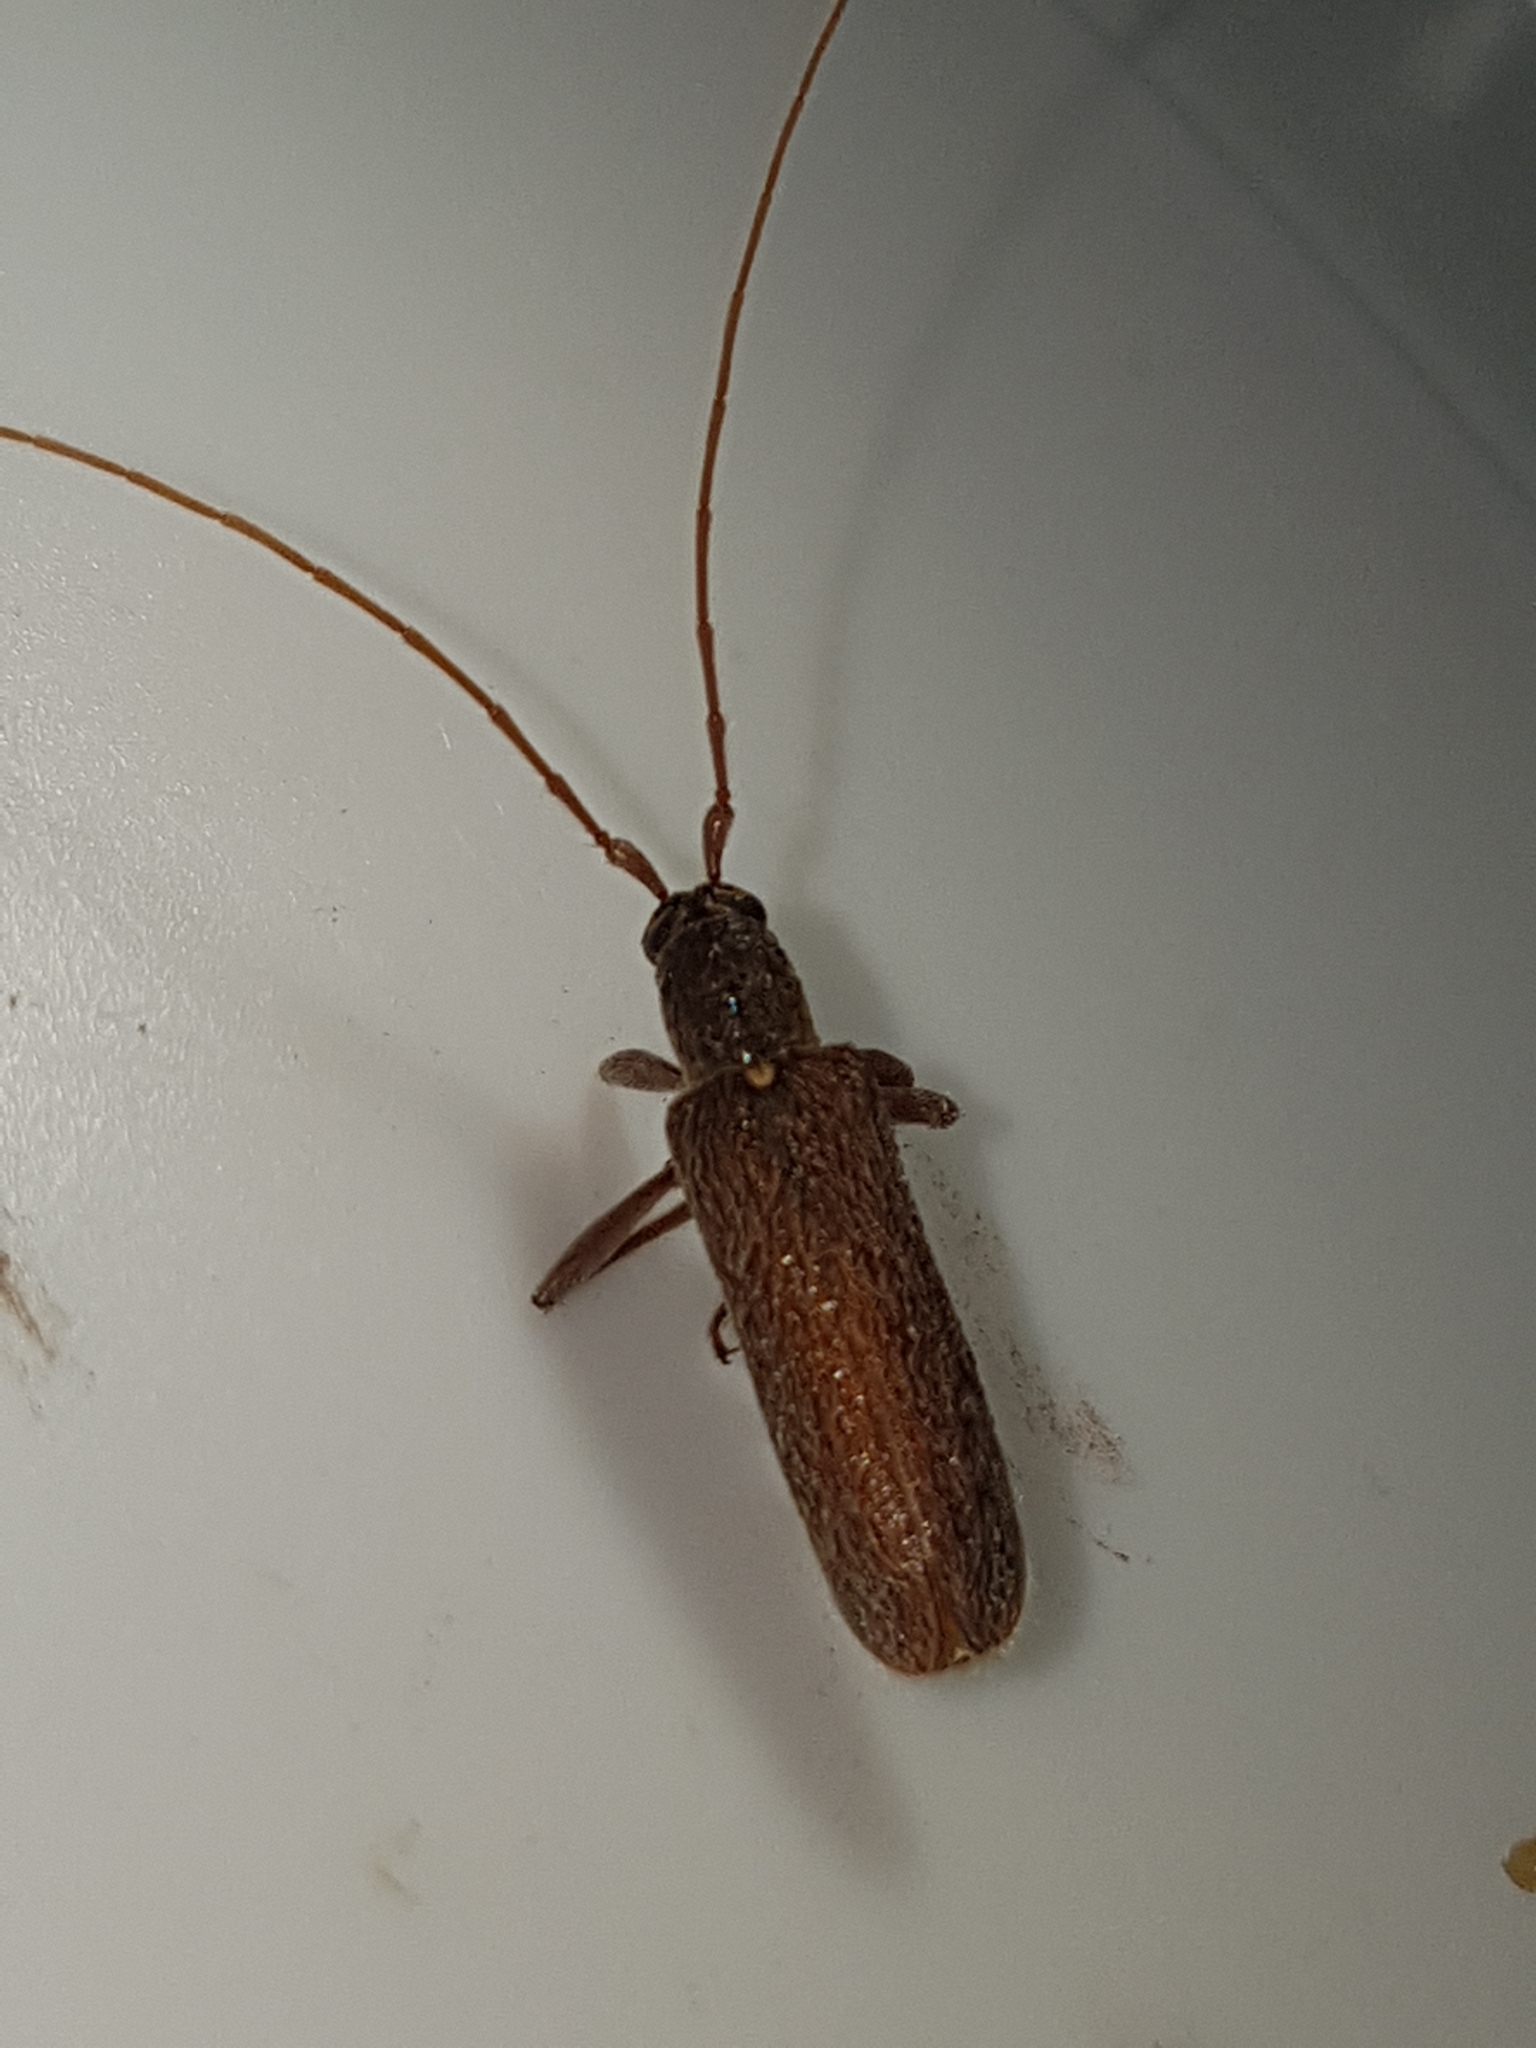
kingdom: Animalia
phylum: Arthropoda
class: Insecta
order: Coleoptera
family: Cerambycidae
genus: Oemona
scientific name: Oemona hirta
